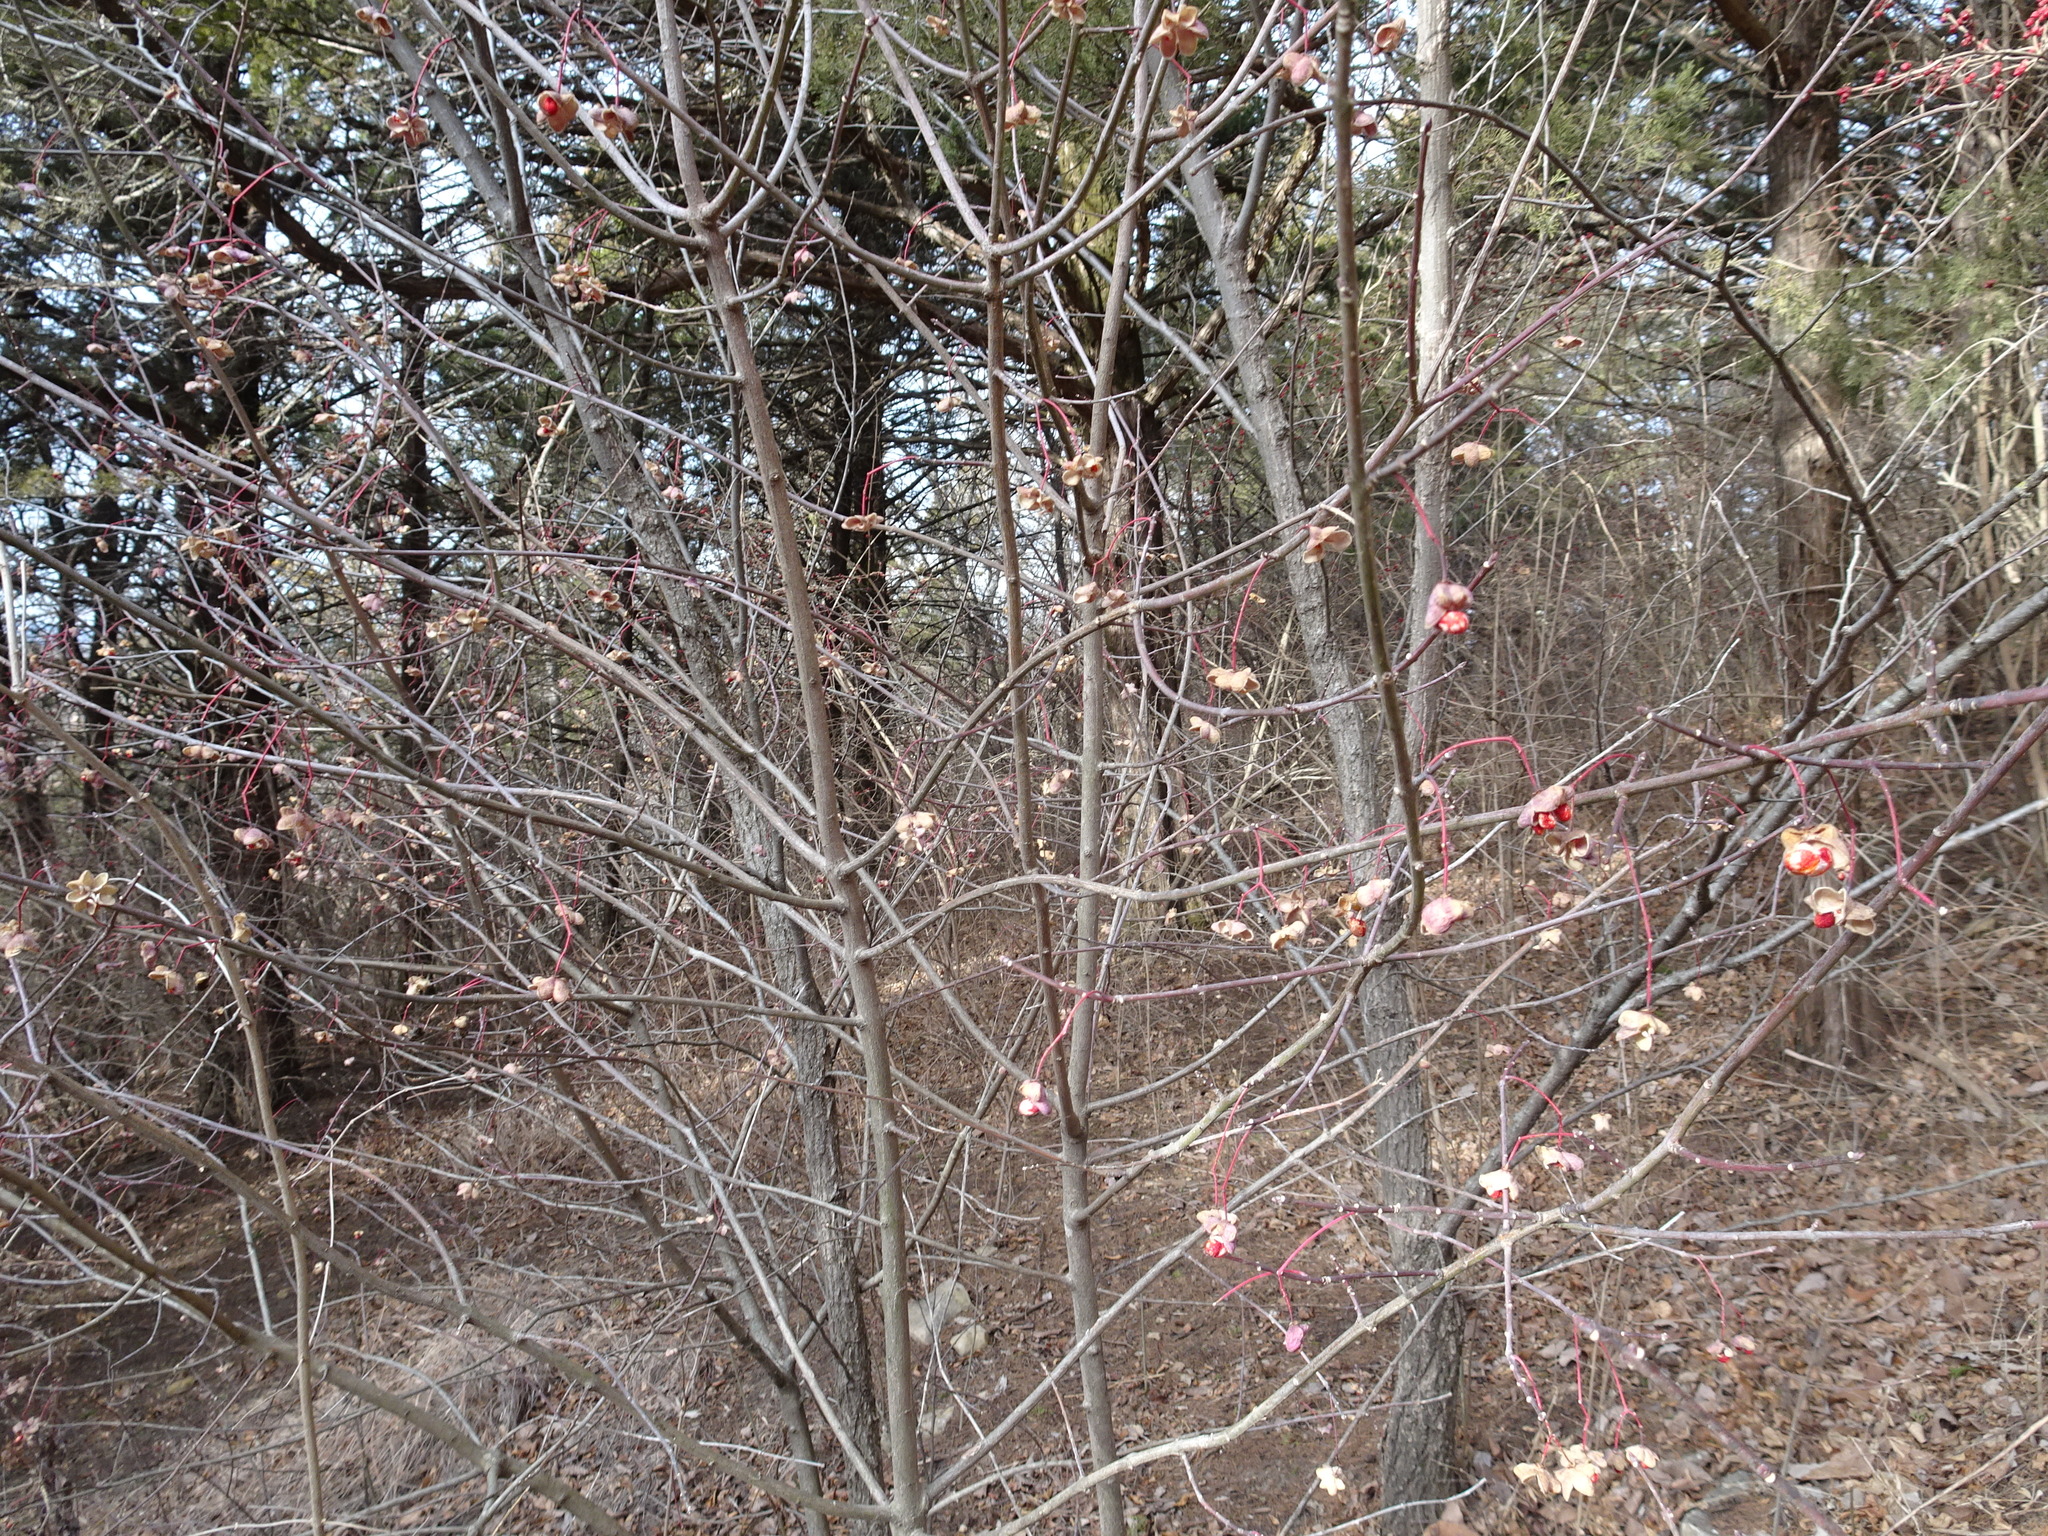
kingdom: Plantae
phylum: Tracheophyta
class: Magnoliopsida
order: Celastrales
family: Celastraceae
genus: Euonymus
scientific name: Euonymus atropurpureus
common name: Eastern wahoo
